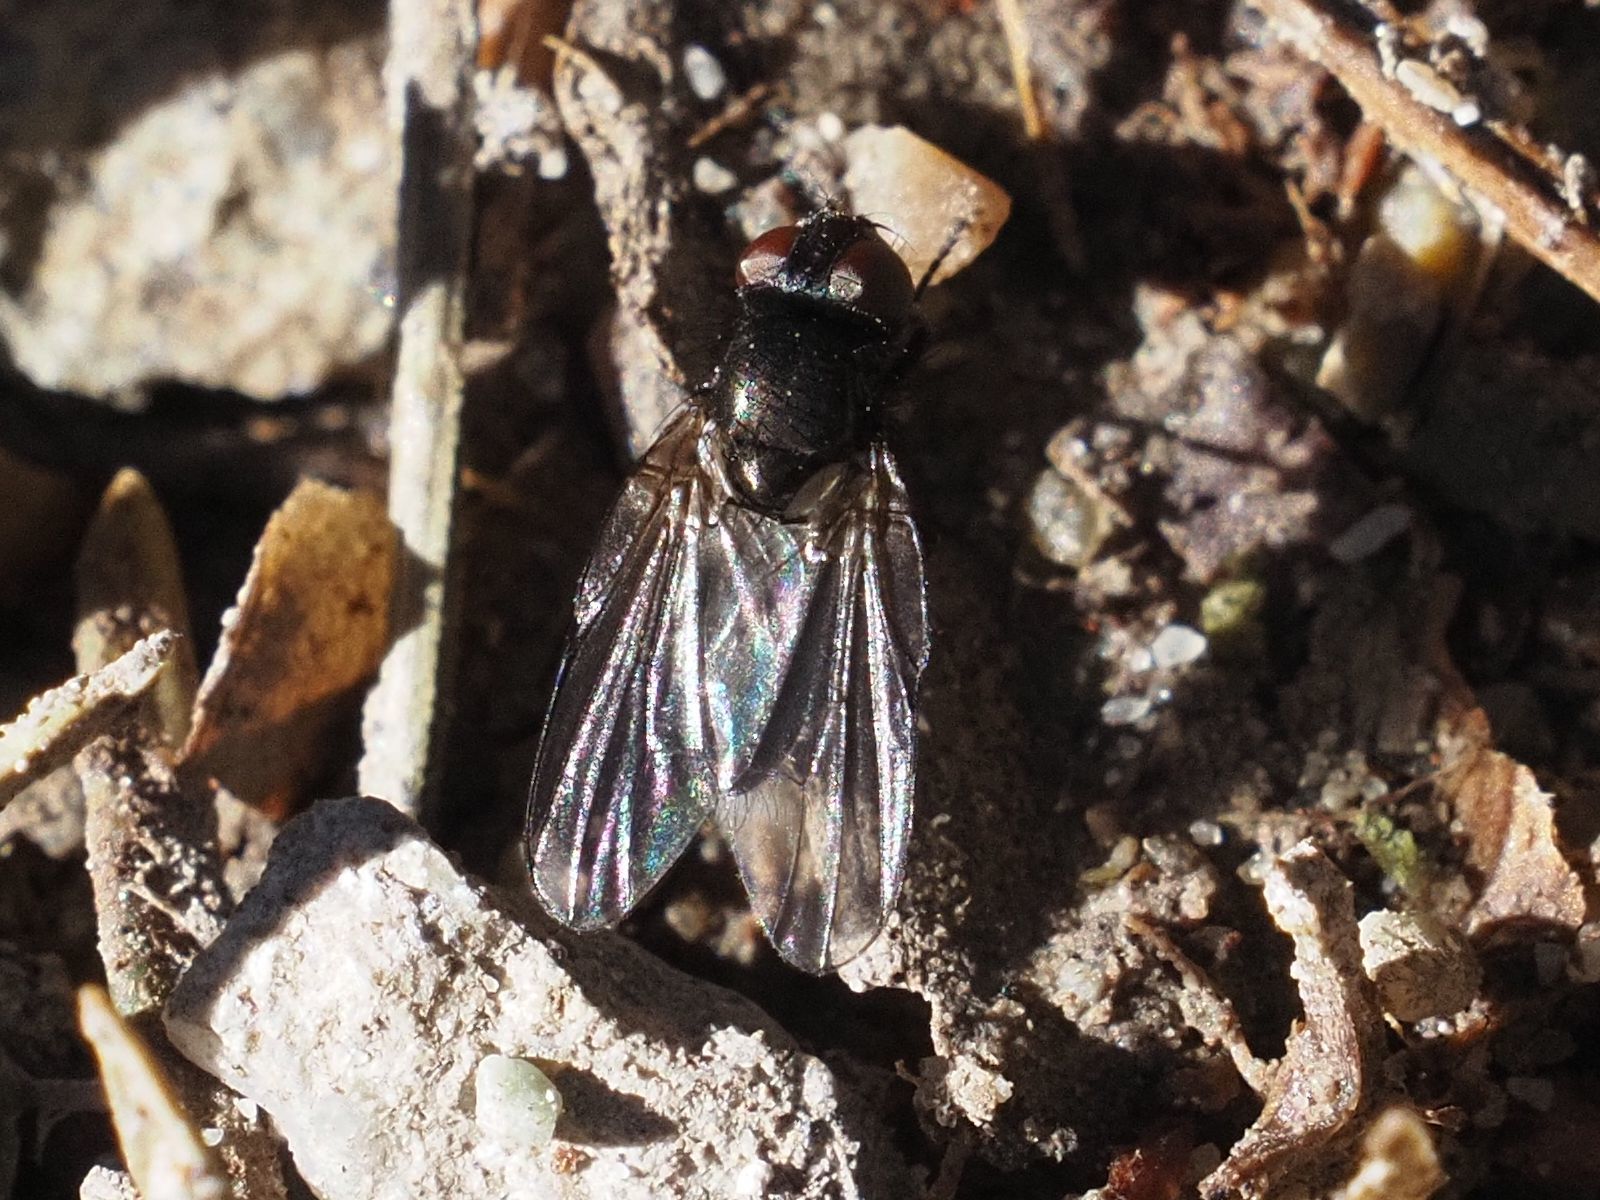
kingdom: Animalia
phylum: Arthropoda
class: Insecta
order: Diptera
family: Lonchaeidae
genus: Earomyia
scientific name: Earomyia lonchaeoides
